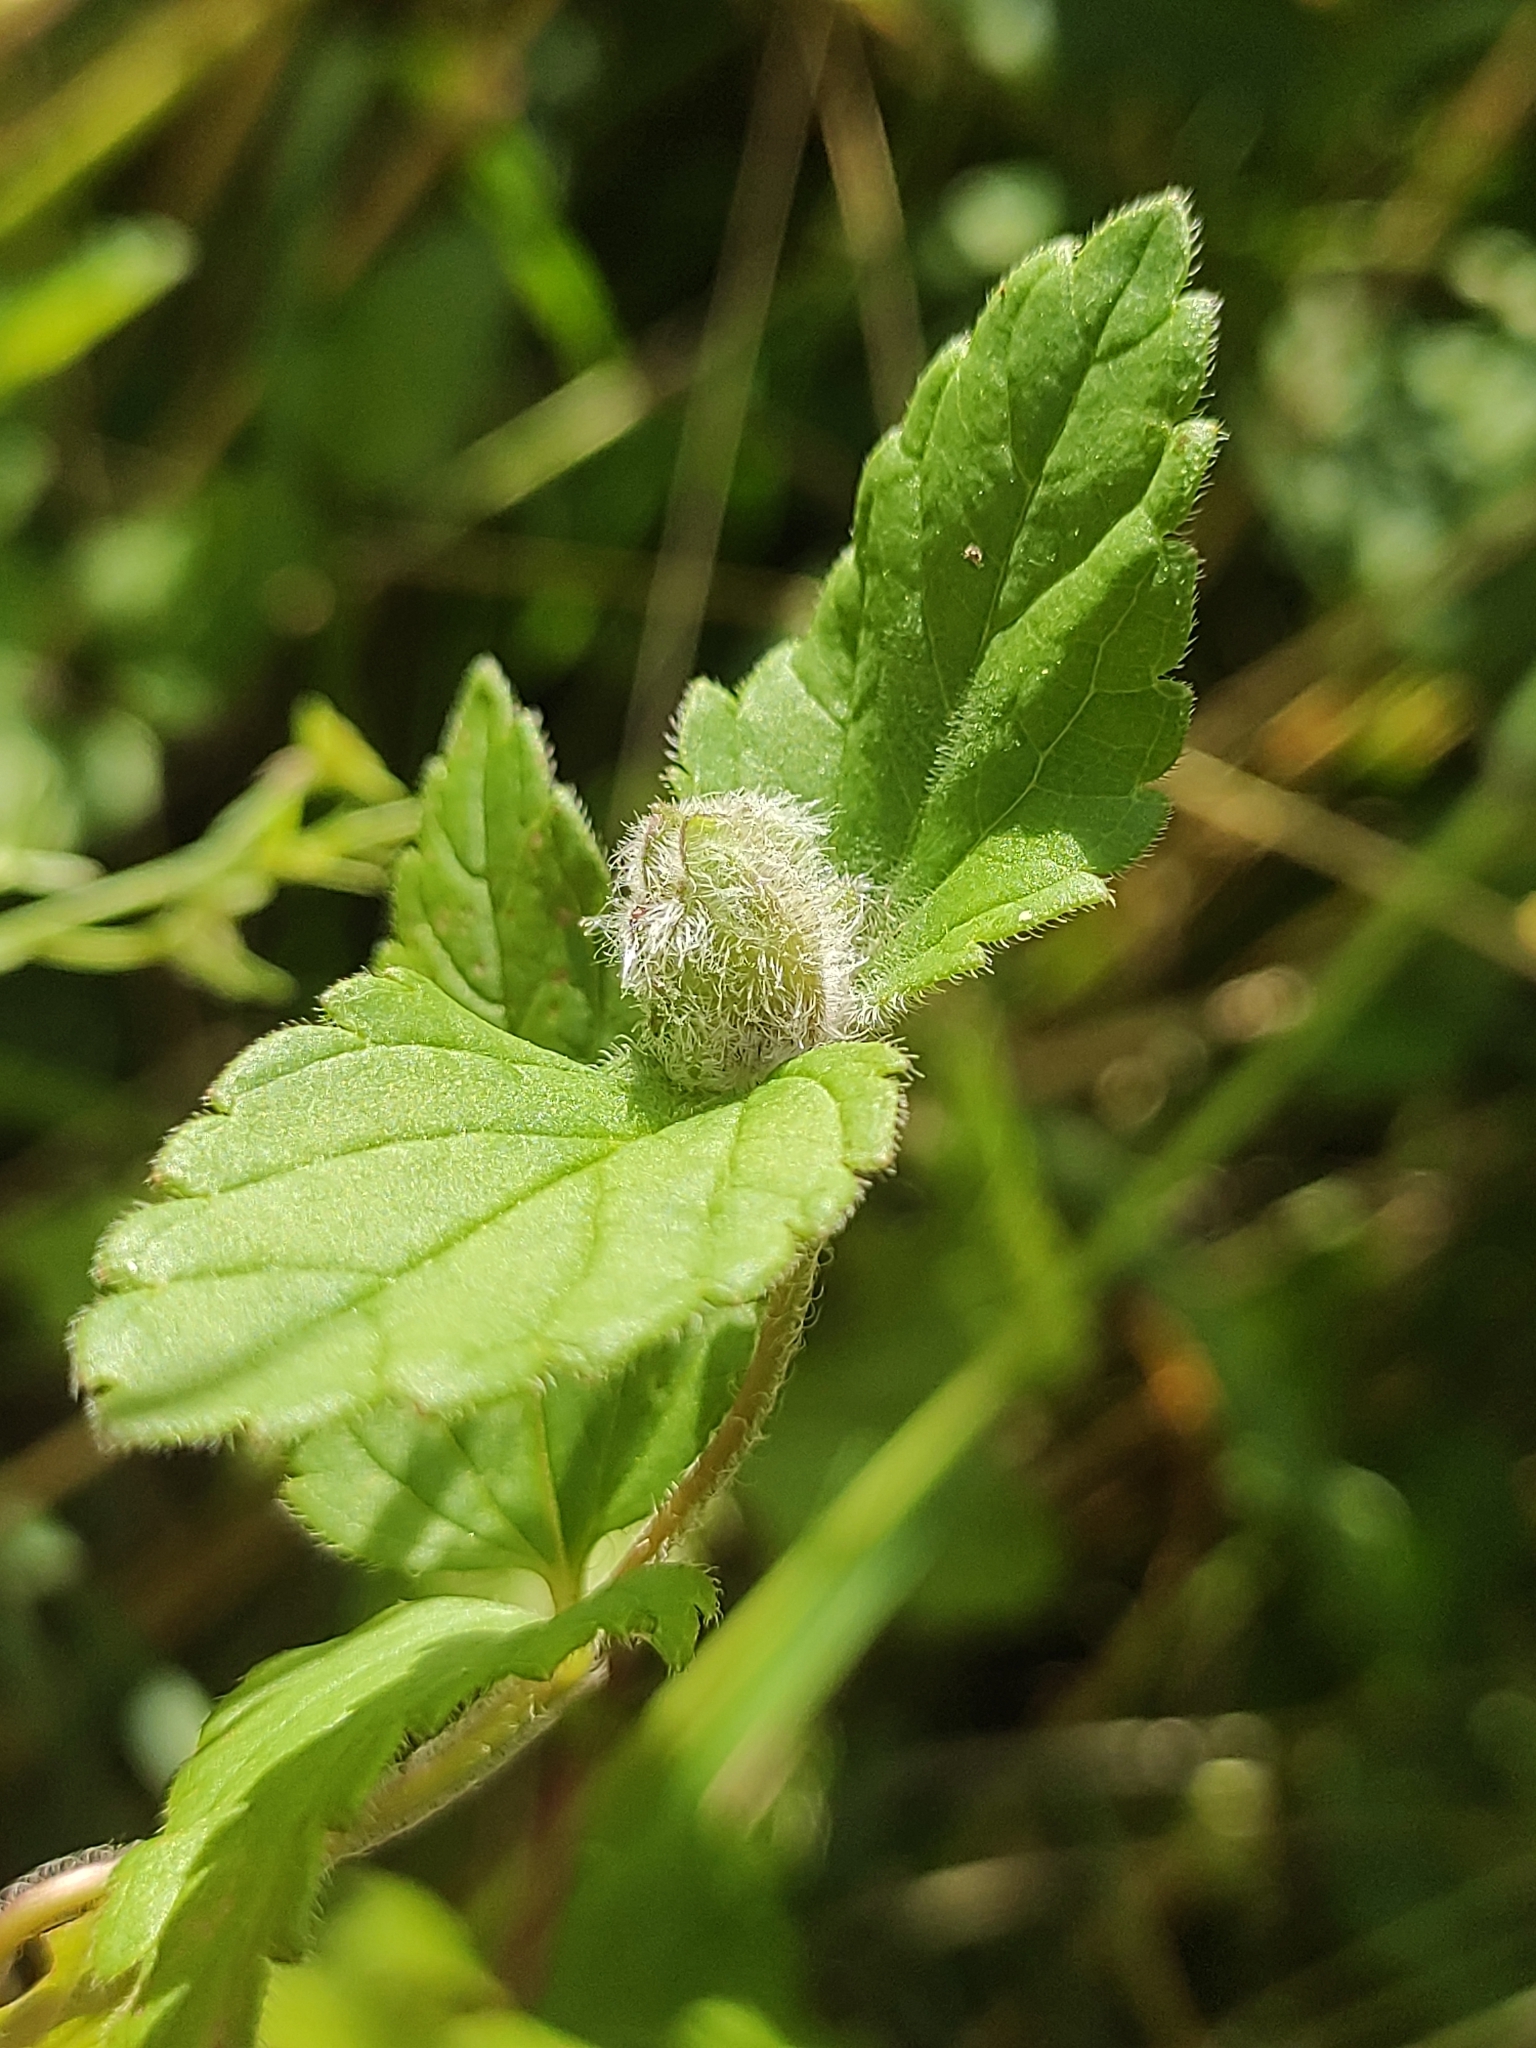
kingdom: Animalia
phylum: Arthropoda
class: Insecta
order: Diptera
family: Cecidomyiidae
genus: Jaapiella
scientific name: Jaapiella veronicae
